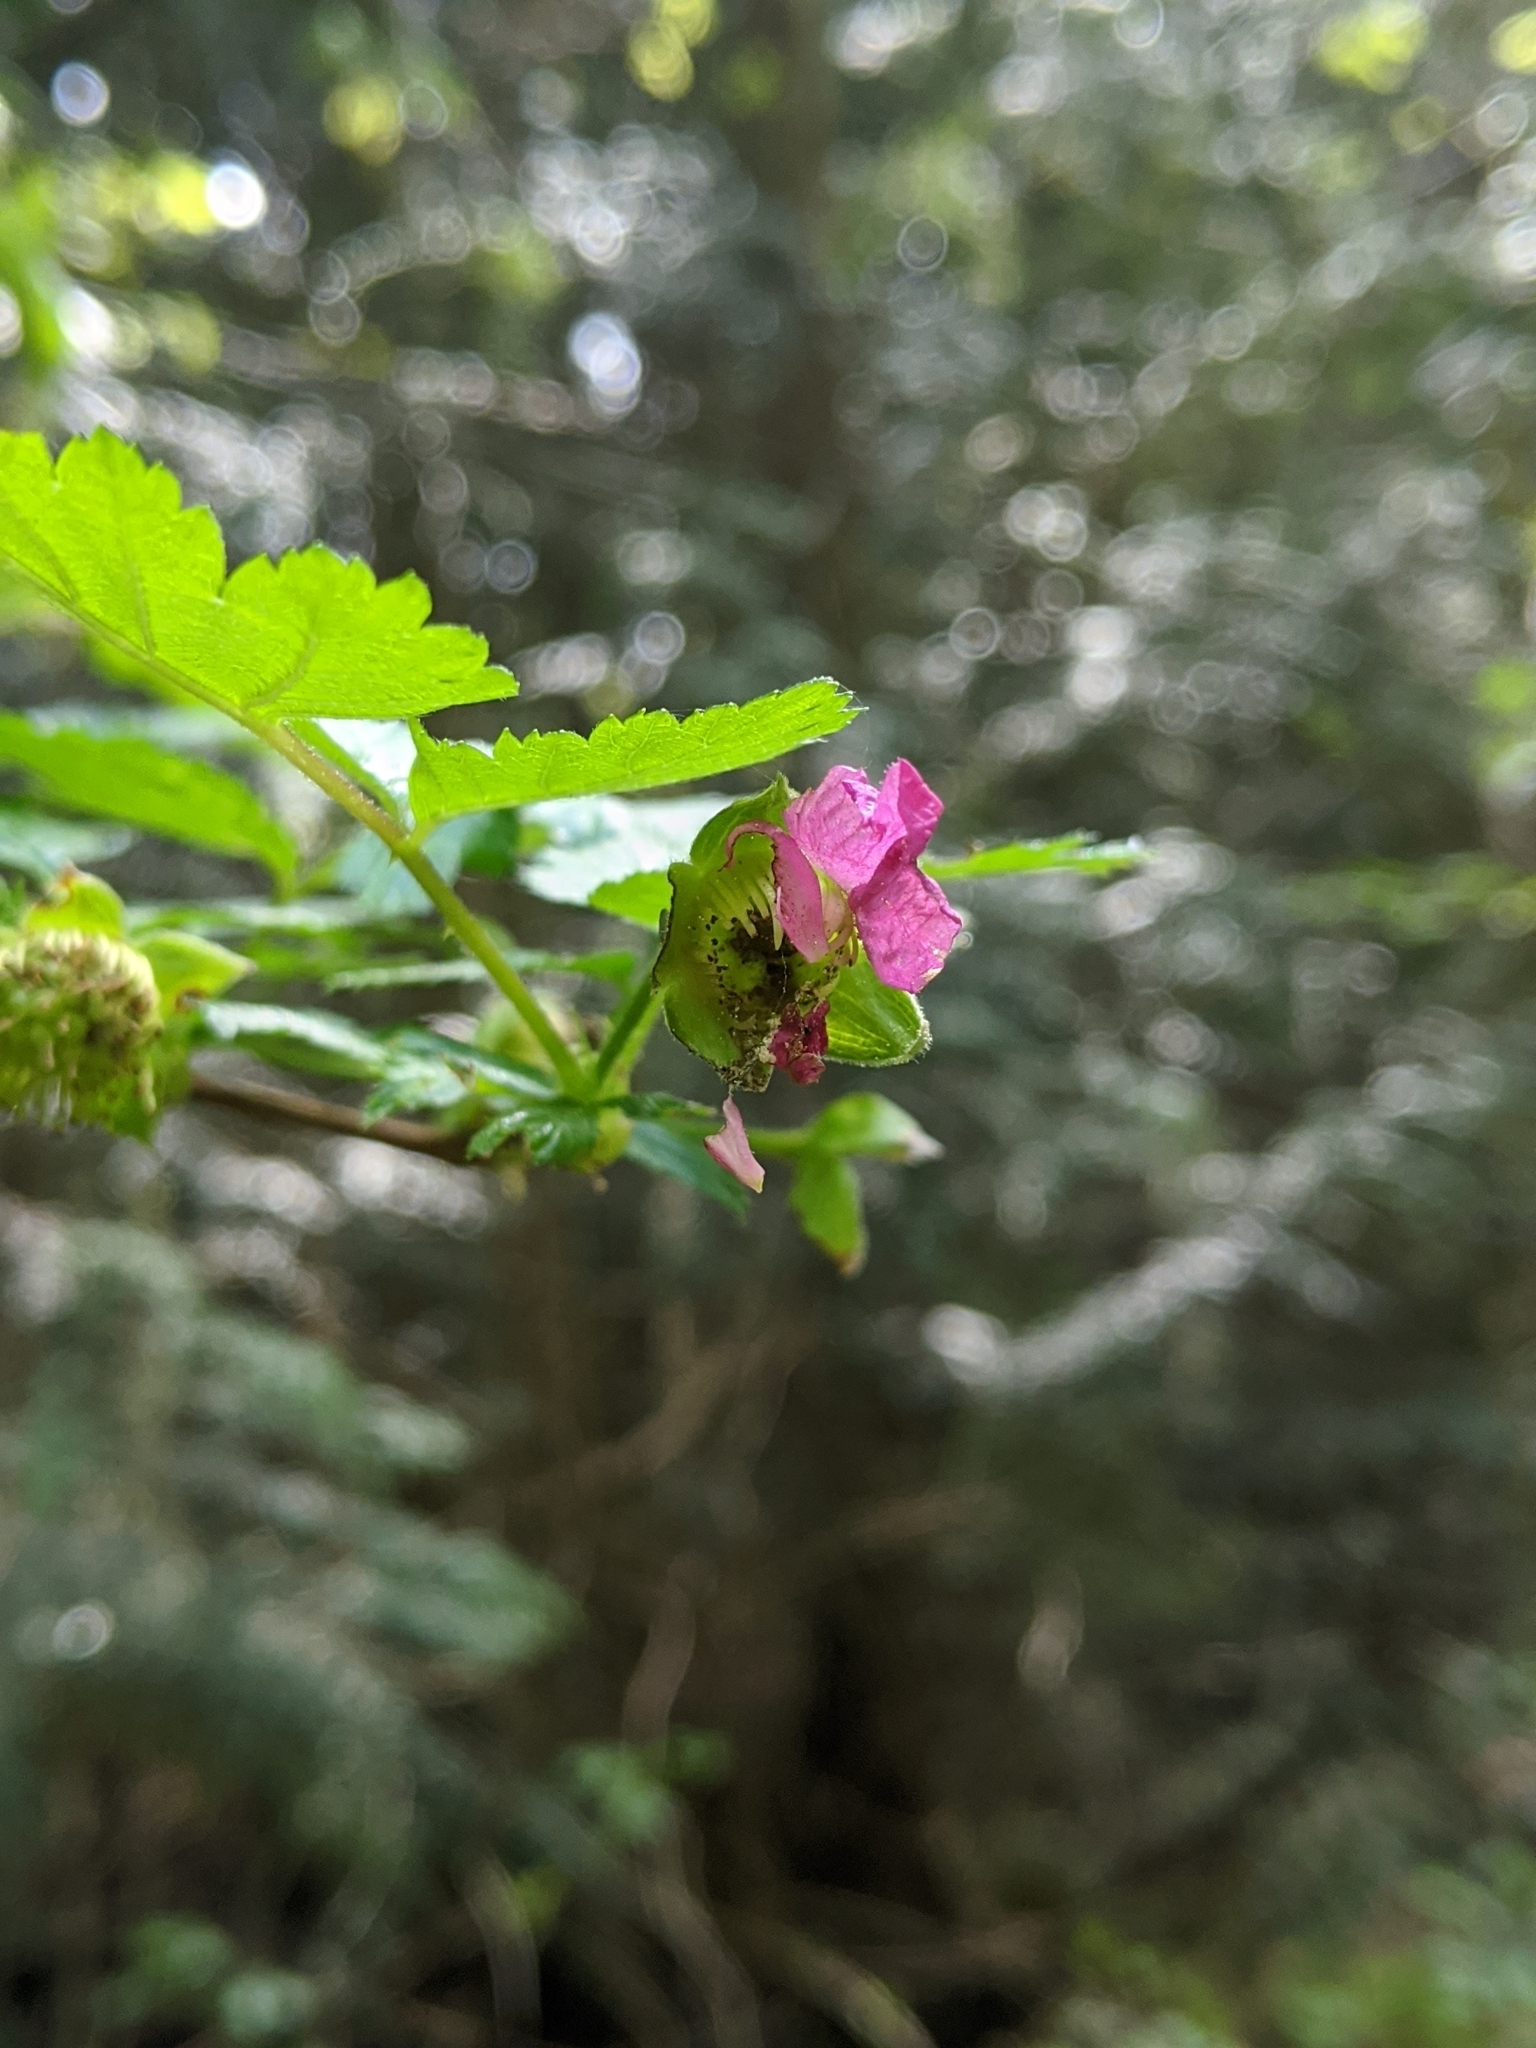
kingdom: Plantae
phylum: Tracheophyta
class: Magnoliopsida
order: Rosales
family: Rosaceae
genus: Rubus
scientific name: Rubus spectabilis
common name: Salmonberry
